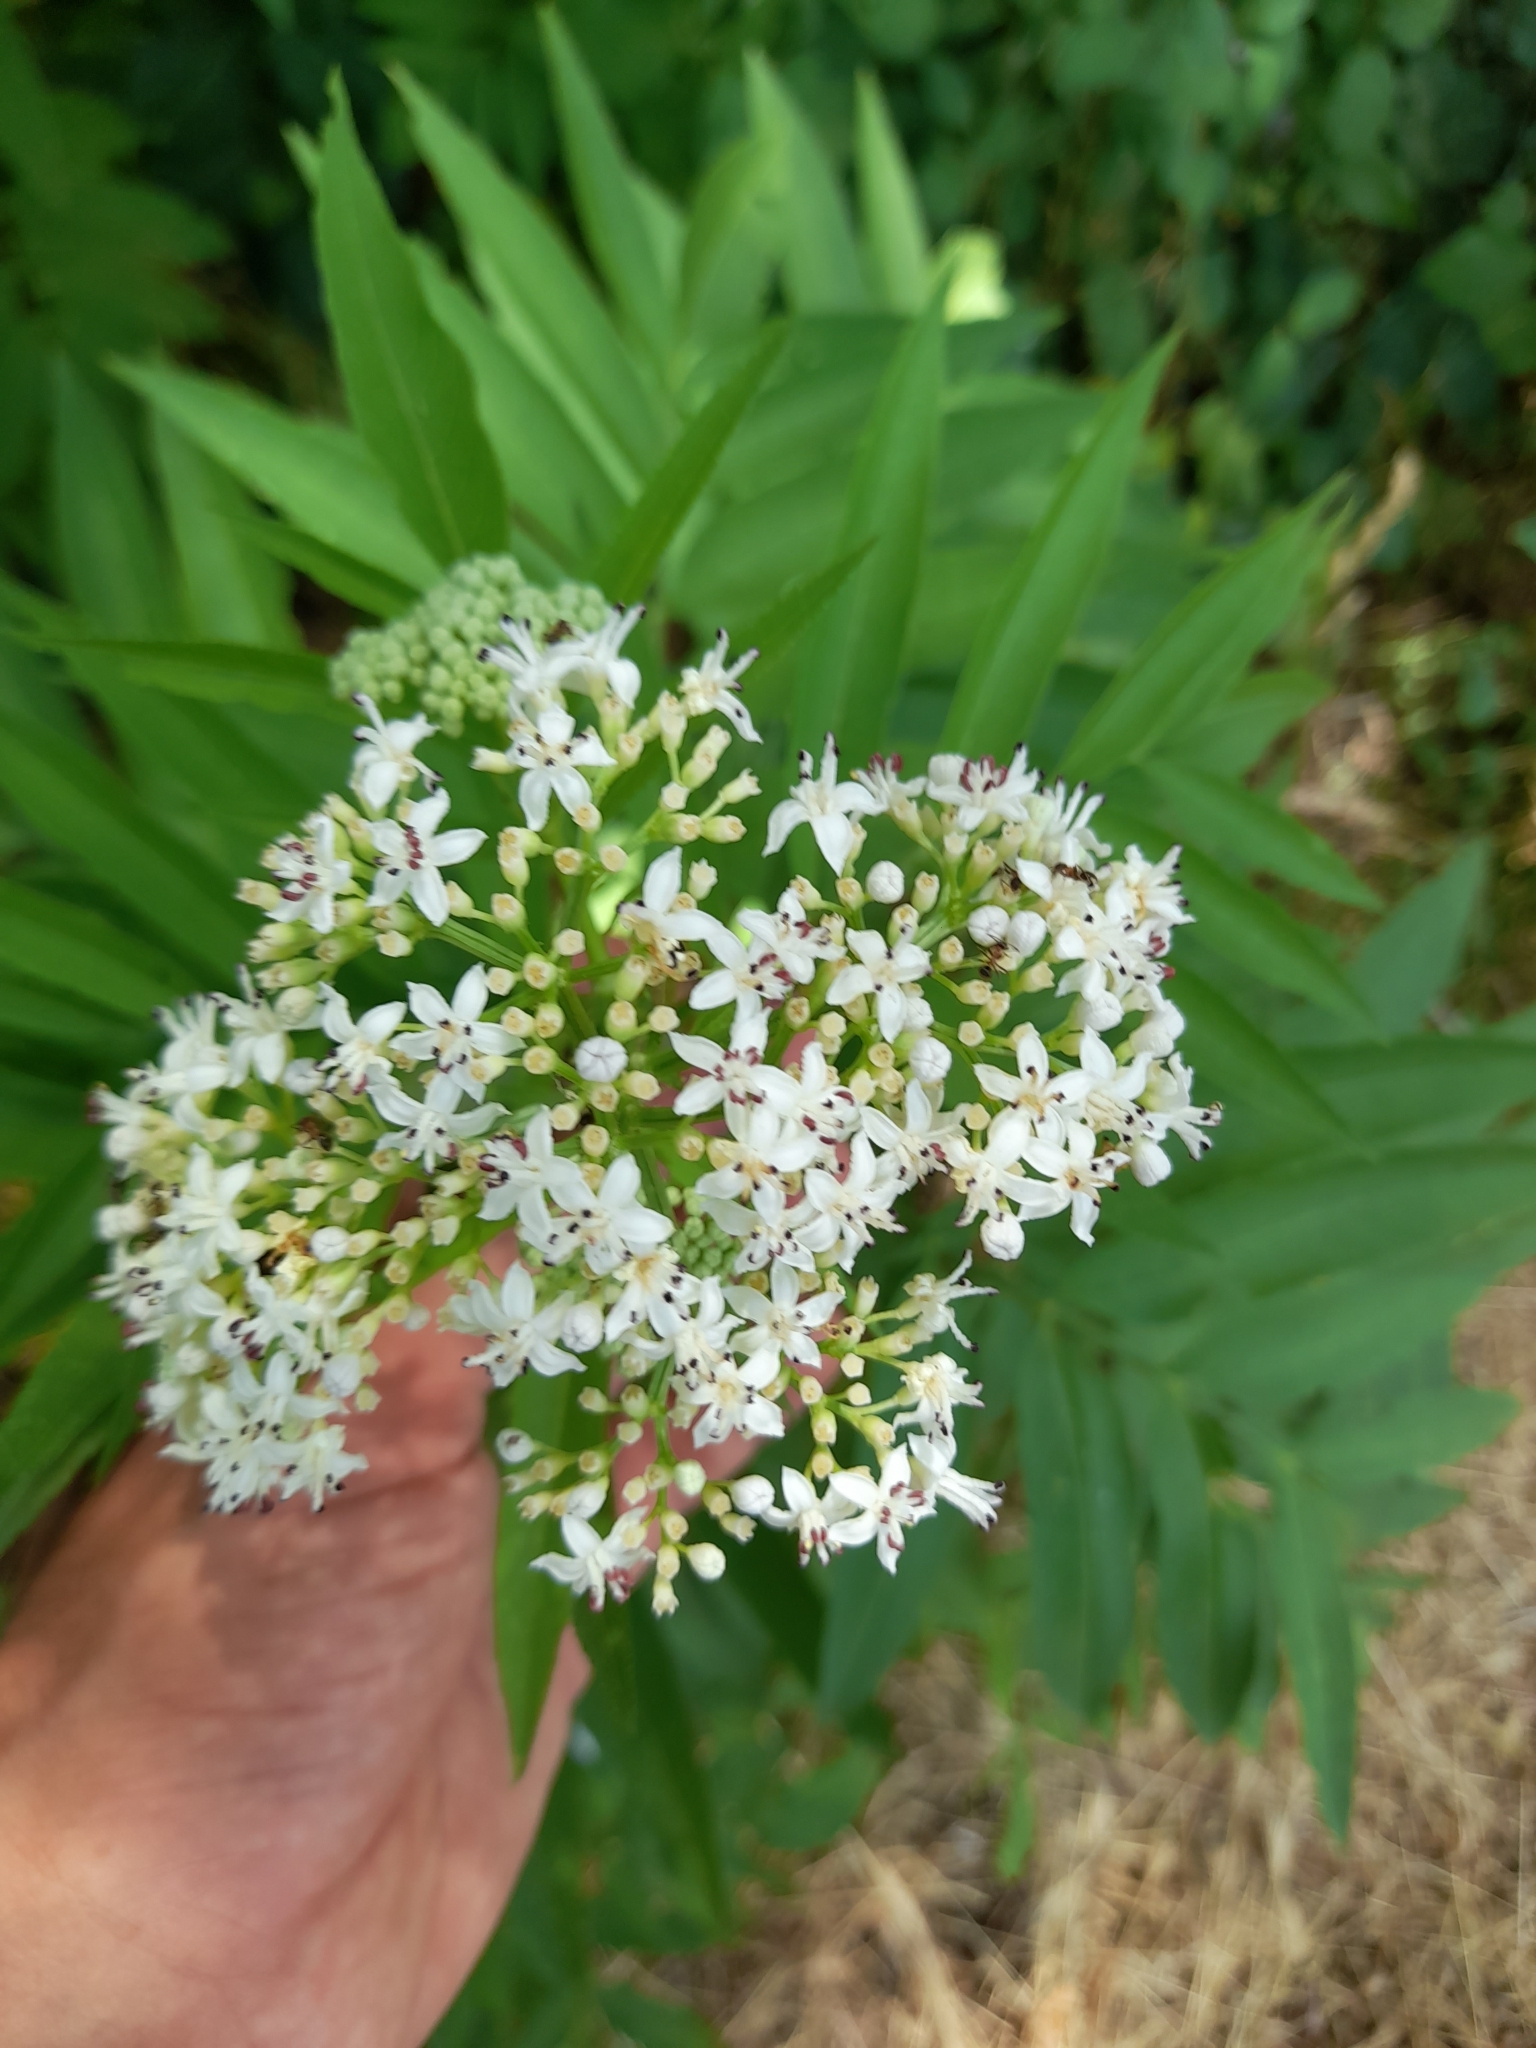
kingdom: Plantae
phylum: Tracheophyta
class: Magnoliopsida
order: Dipsacales
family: Viburnaceae
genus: Sambucus
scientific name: Sambucus ebulus
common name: Dwarf elder
